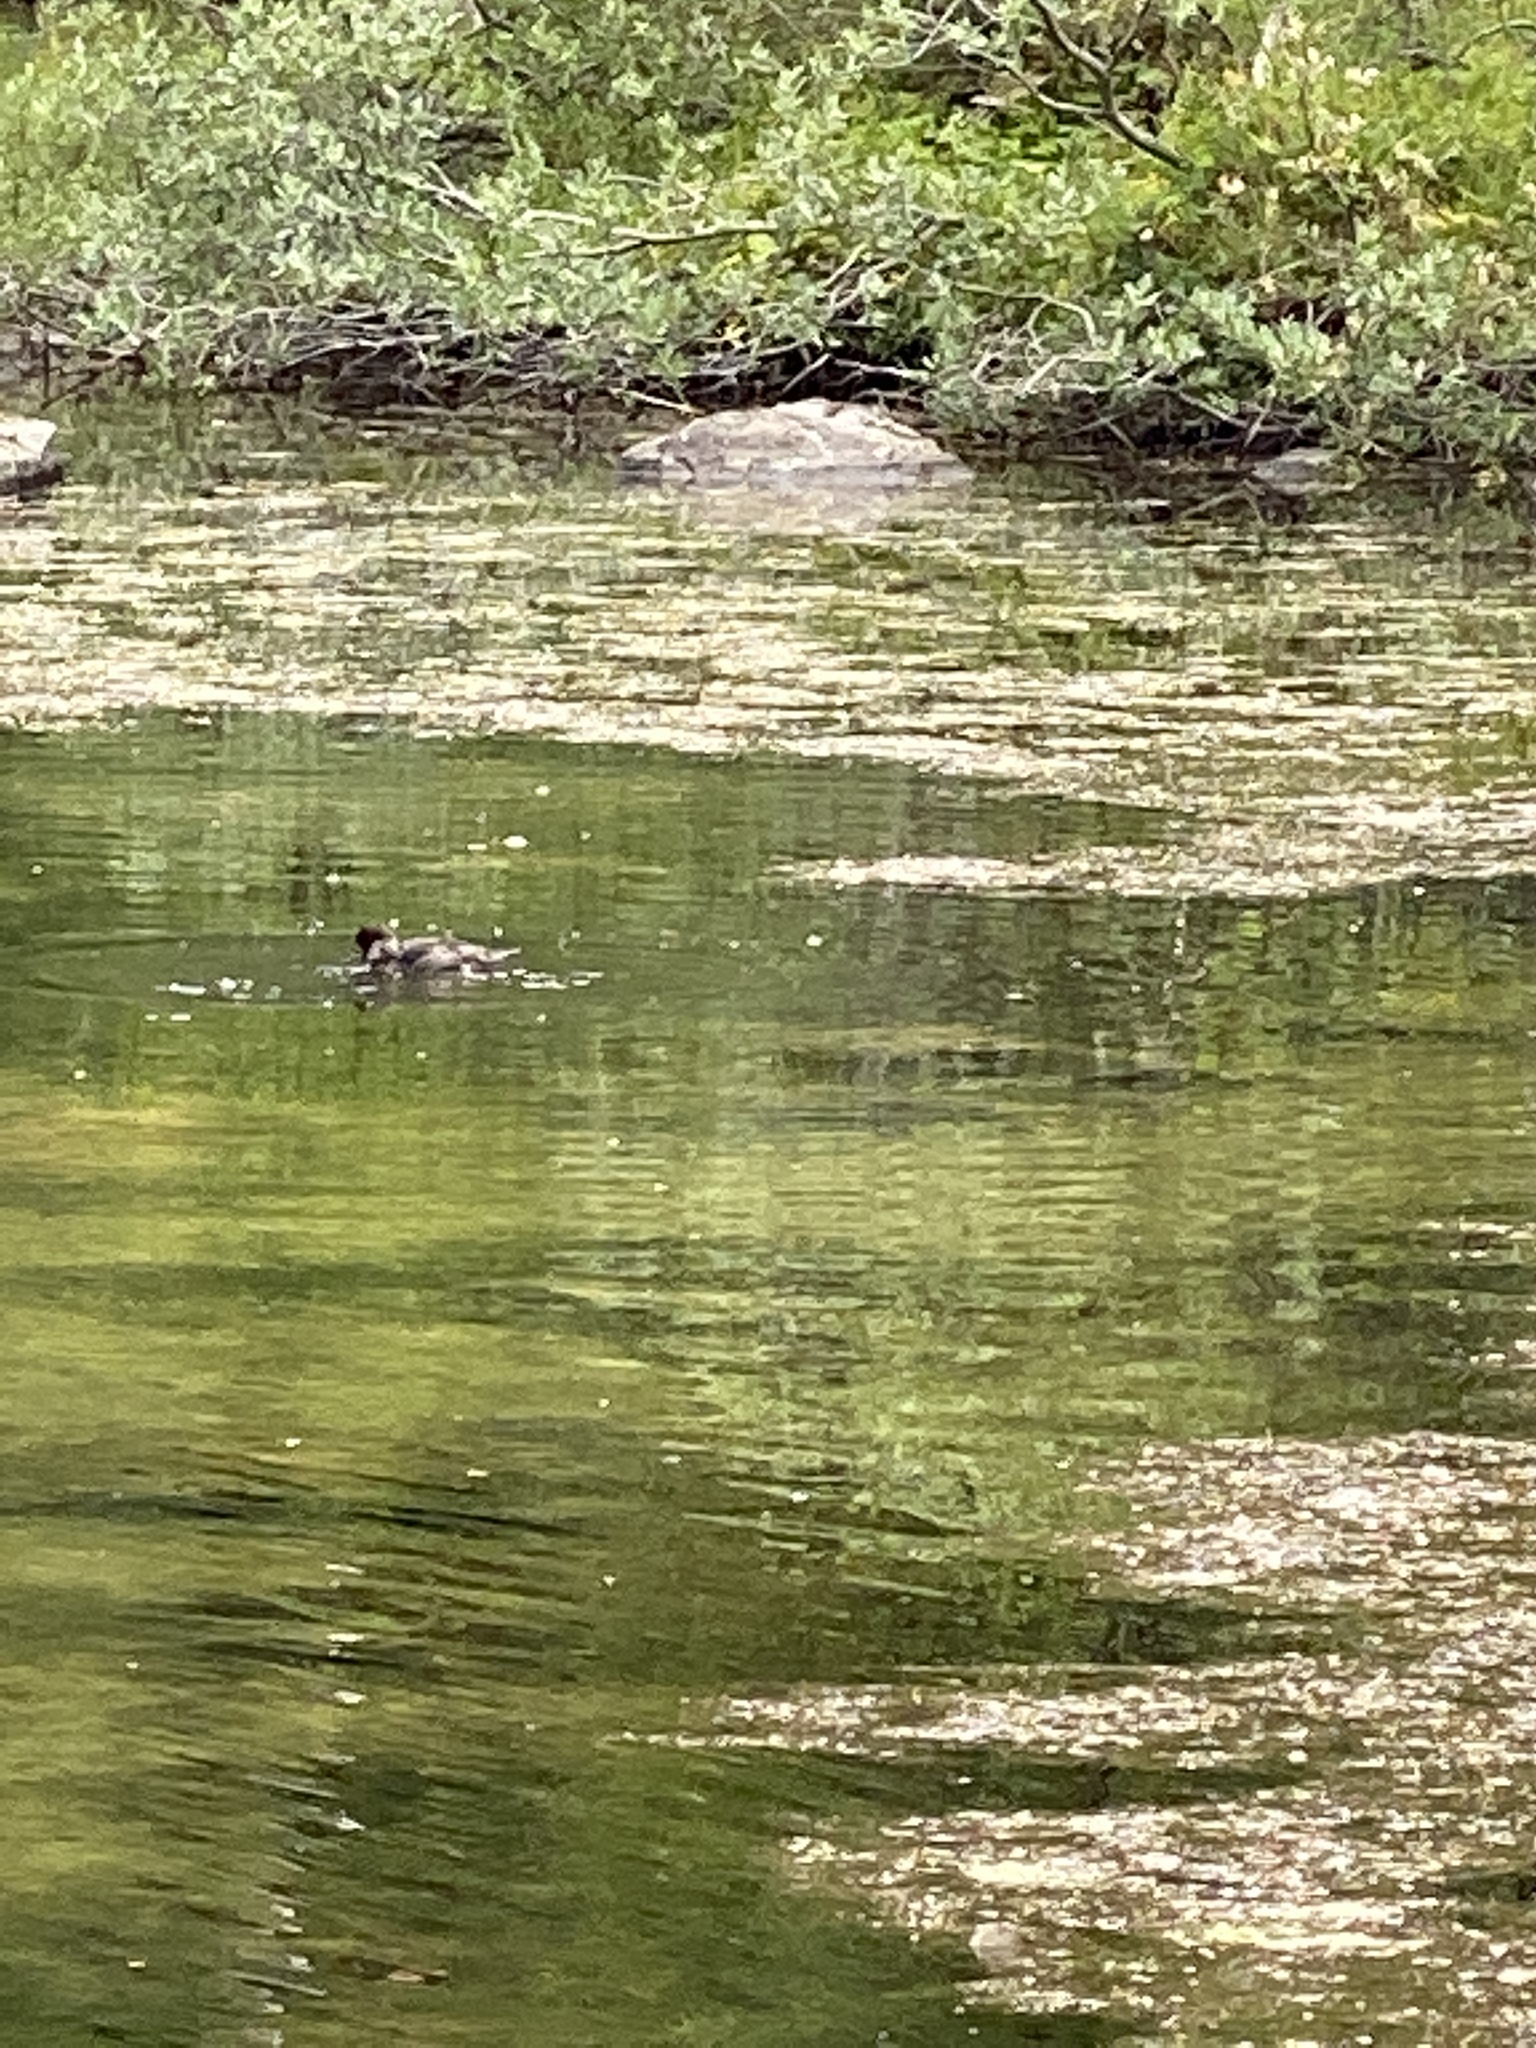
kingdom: Animalia
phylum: Chordata
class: Aves
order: Anseriformes
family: Anatidae
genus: Bucephala
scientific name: Bucephala islandica
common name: Barrow's goldeneye
